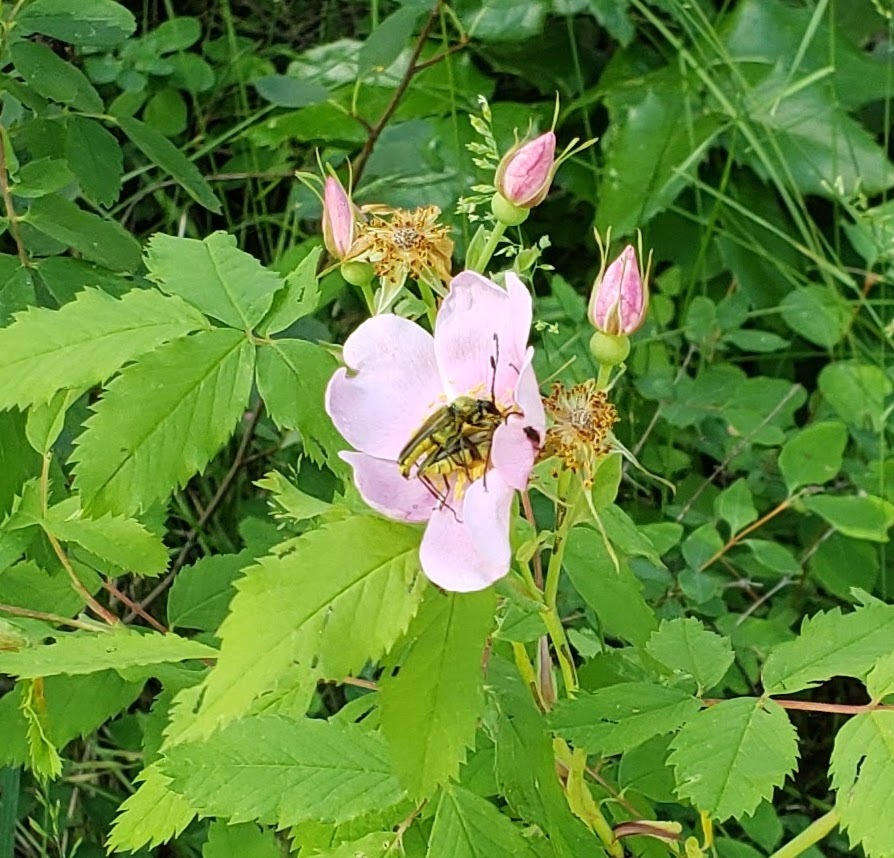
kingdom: Animalia
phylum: Arthropoda
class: Insecta
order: Coleoptera
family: Cerambycidae
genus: Cosmosalia
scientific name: Cosmosalia chrysocoma
